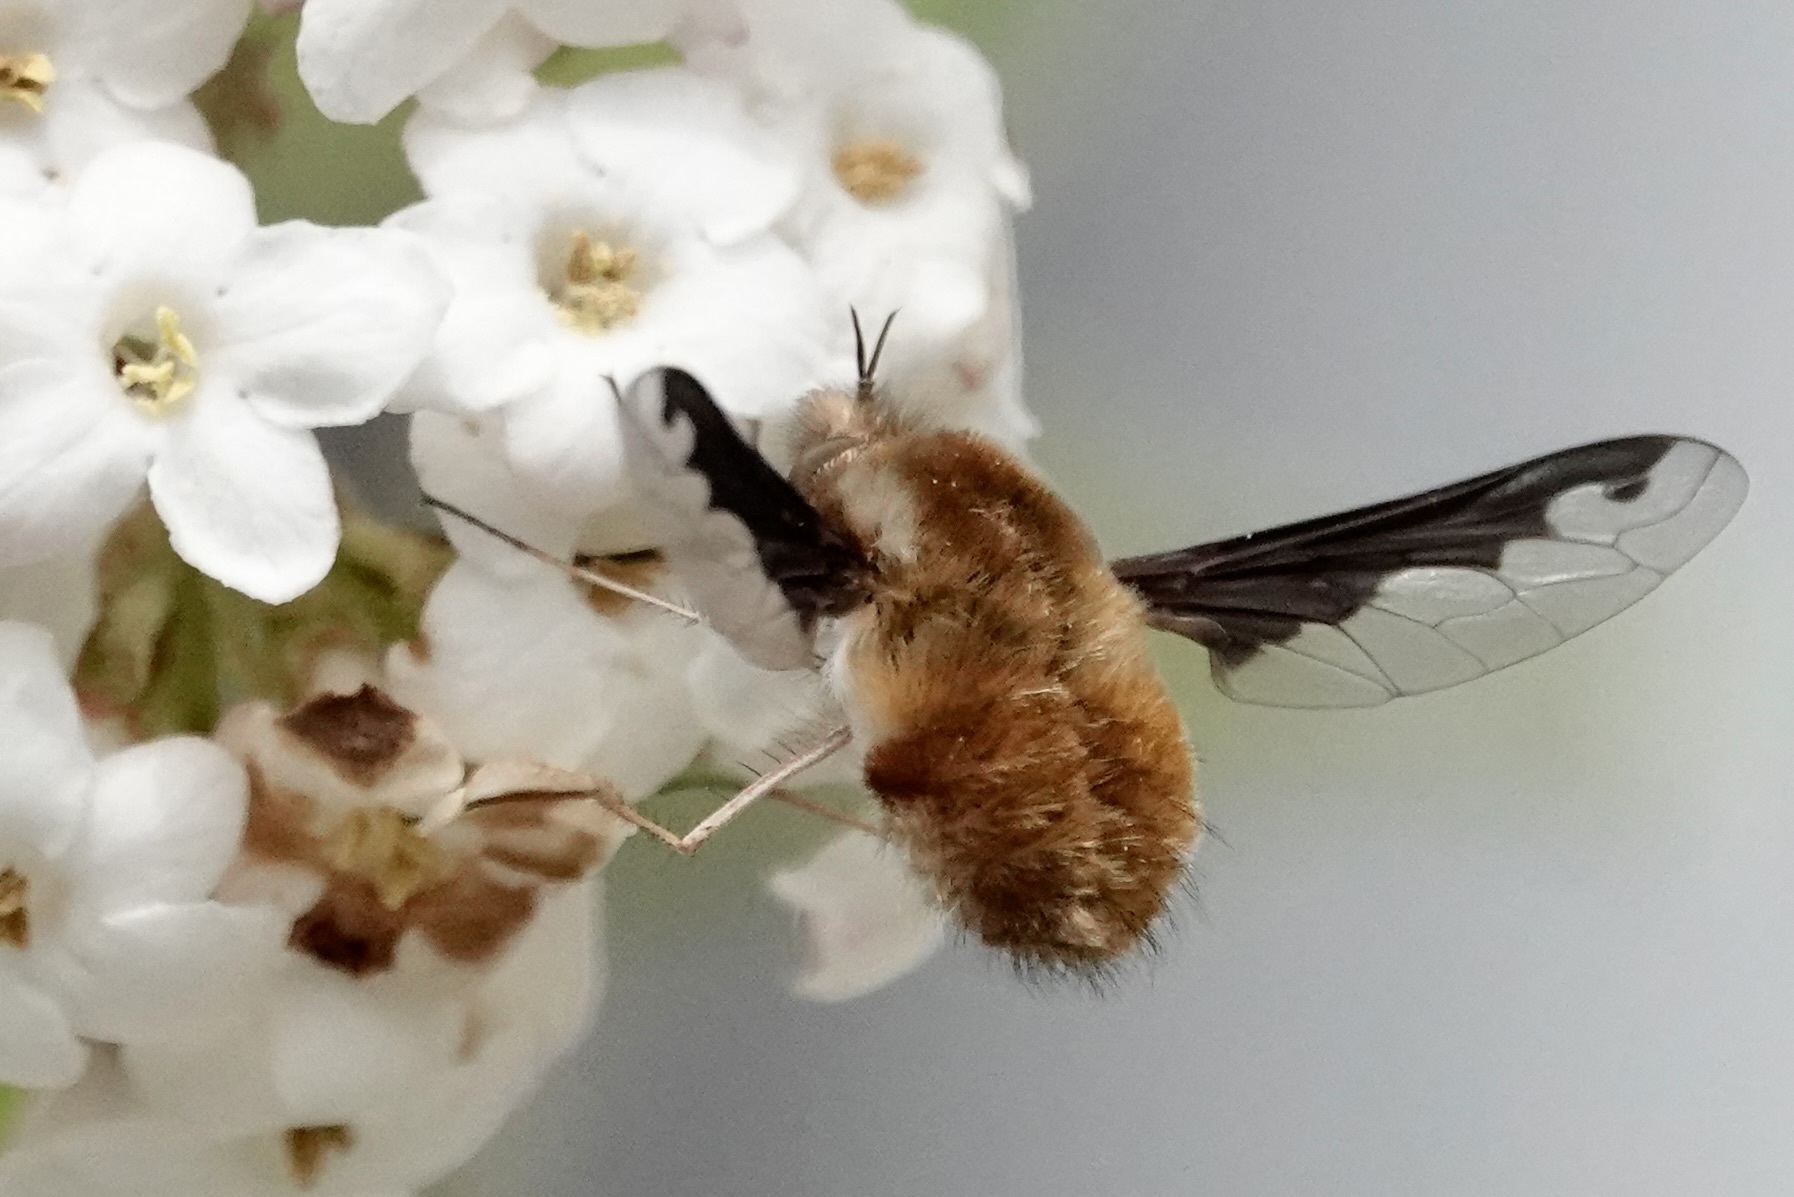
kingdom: Animalia
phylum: Arthropoda
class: Insecta
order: Diptera
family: Bombyliidae
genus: Bombylius
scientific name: Bombylius major
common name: Bee fly
